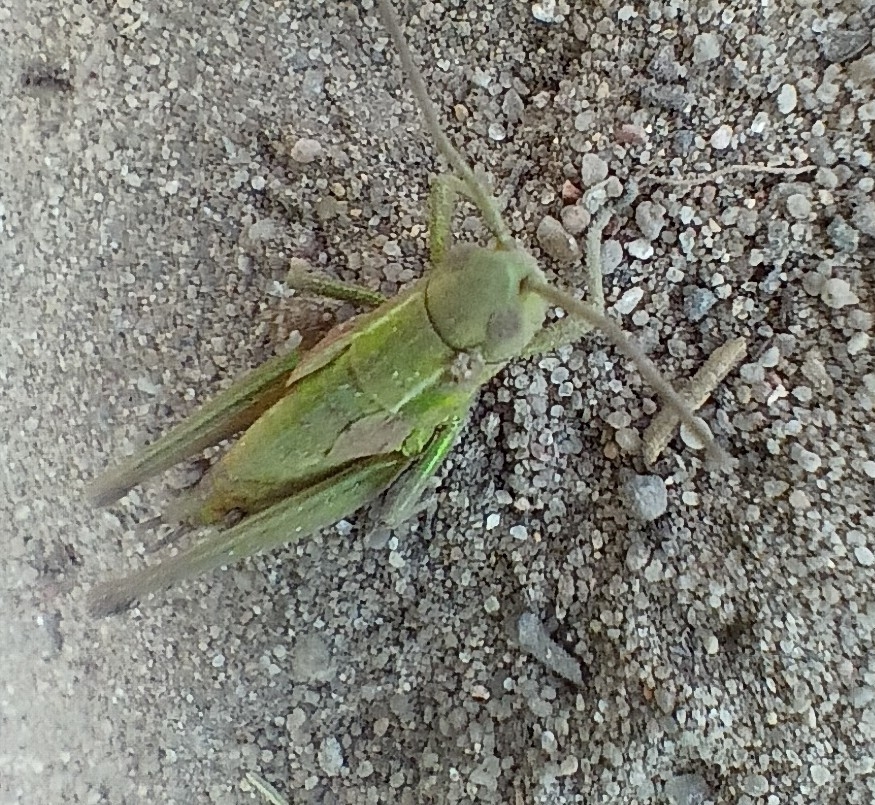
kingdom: Animalia
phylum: Arthropoda
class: Insecta
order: Orthoptera
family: Acrididae
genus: Euthystira
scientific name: Euthystira brachyptera
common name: Small gold grasshopper
